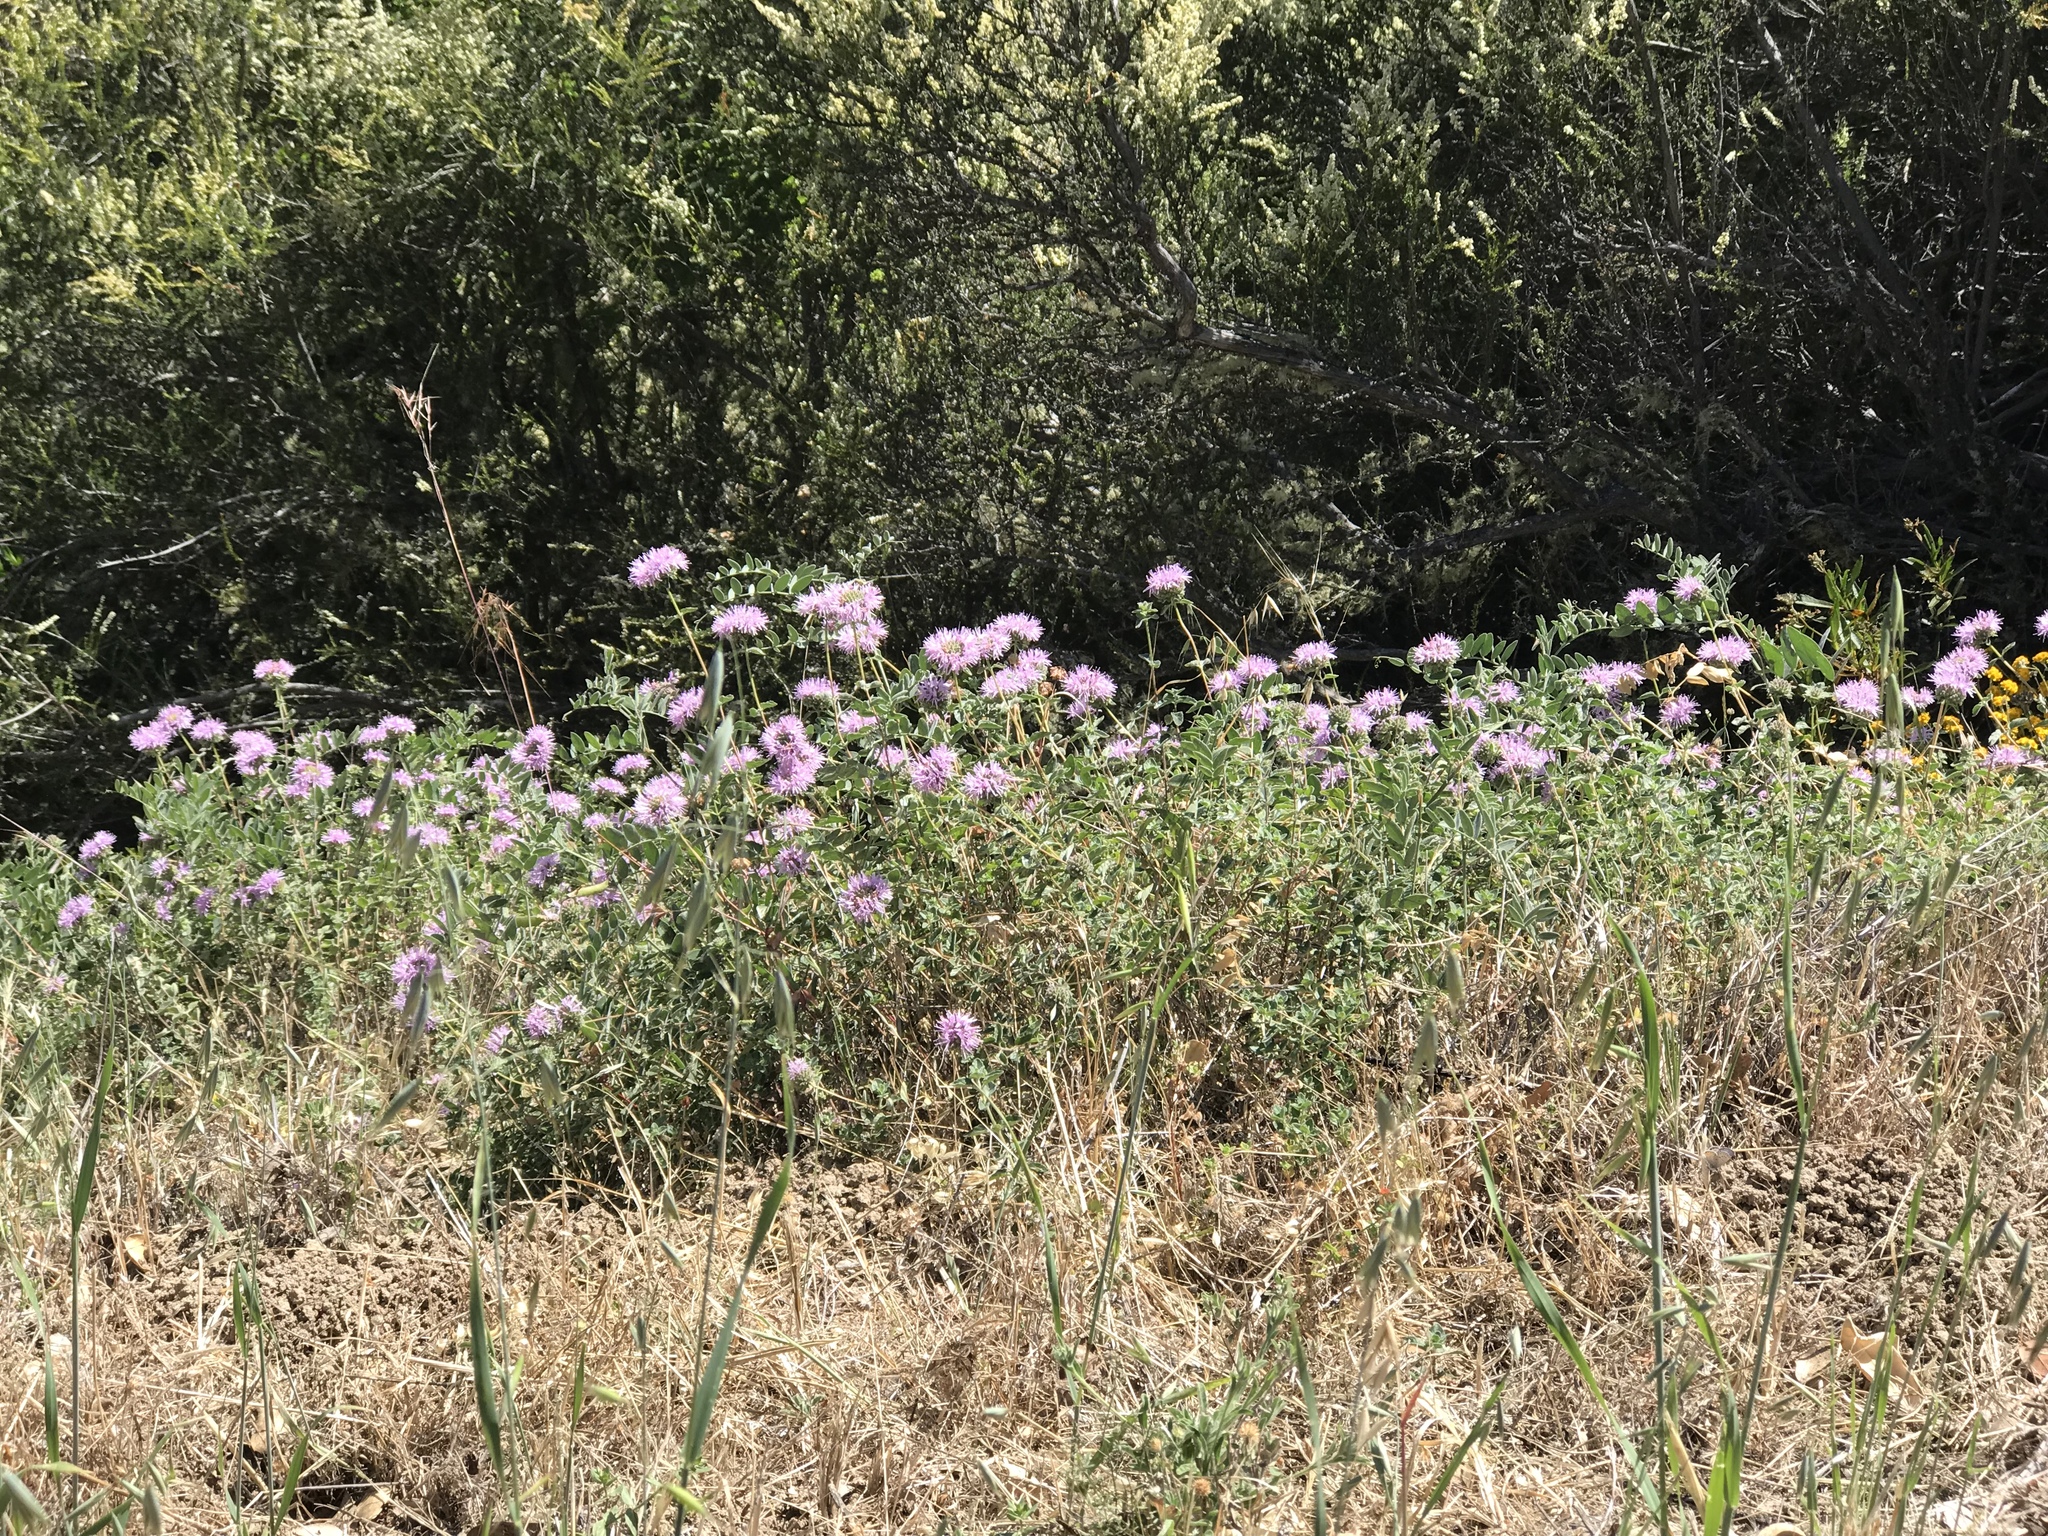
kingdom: Plantae
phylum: Tracheophyta
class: Magnoliopsida
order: Lamiales
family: Lamiaceae
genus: Monardella
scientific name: Monardella odoratissima
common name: Pacific monardella
